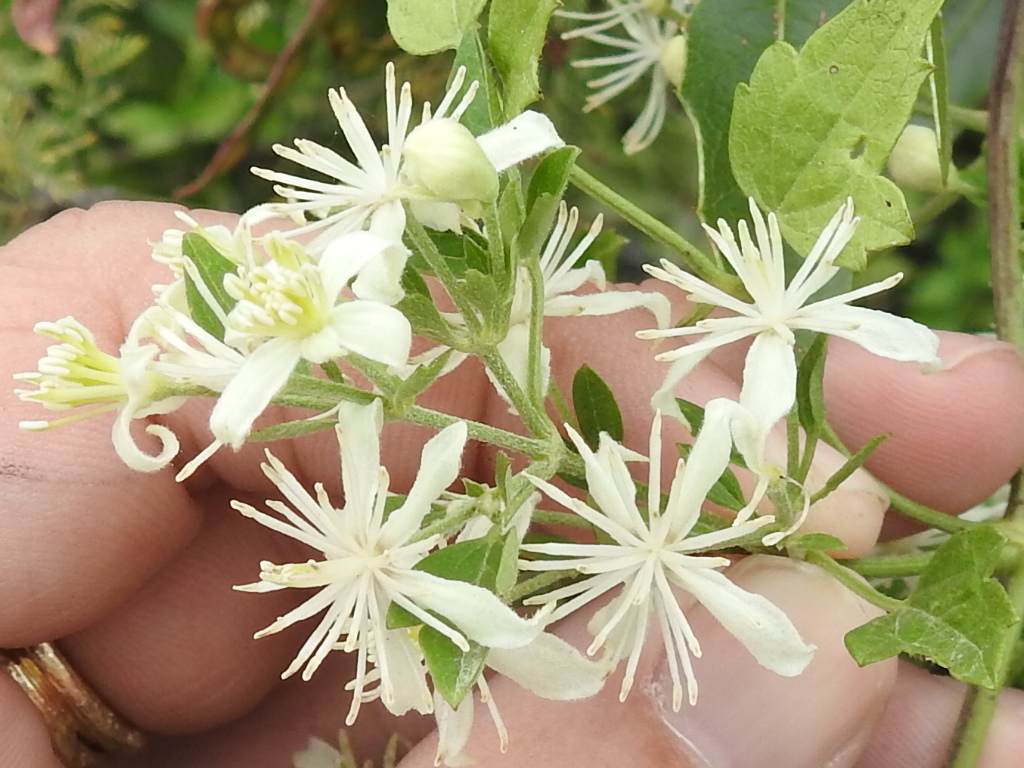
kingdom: Plantae
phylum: Tracheophyta
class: Magnoliopsida
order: Ranunculales
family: Ranunculaceae
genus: Clematis
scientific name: Clematis drummondii
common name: Texas virgin's bower
